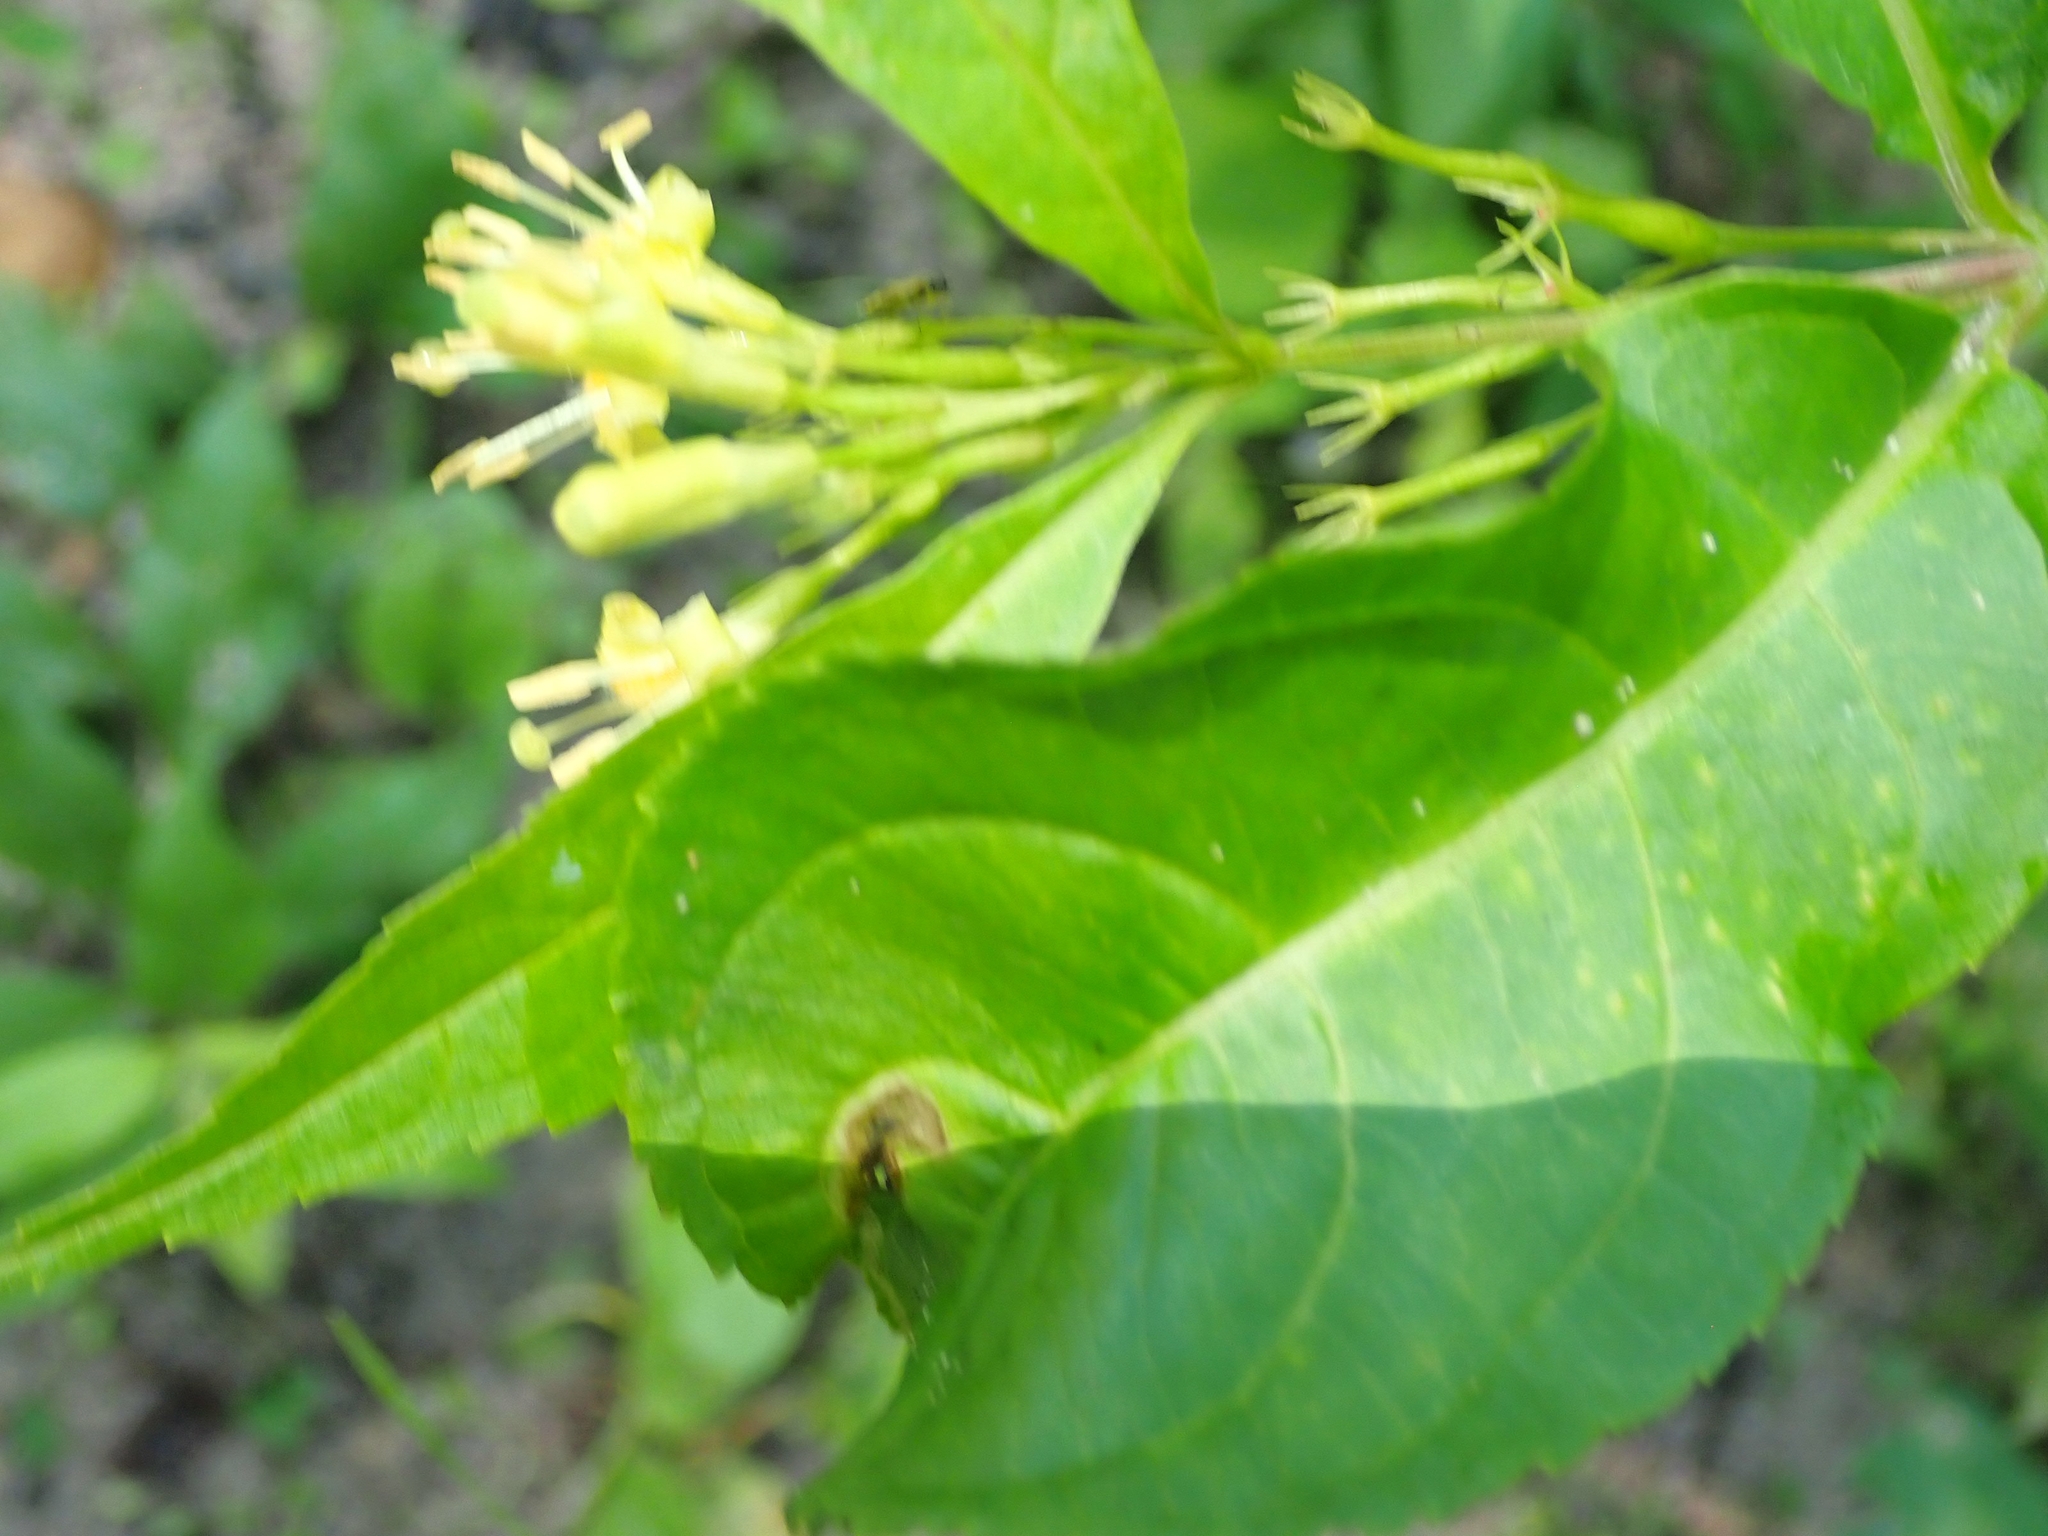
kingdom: Plantae
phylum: Tracheophyta
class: Magnoliopsida
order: Dipsacales
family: Caprifoliaceae
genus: Diervilla
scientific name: Diervilla lonicera
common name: Bush-honeysuckle
